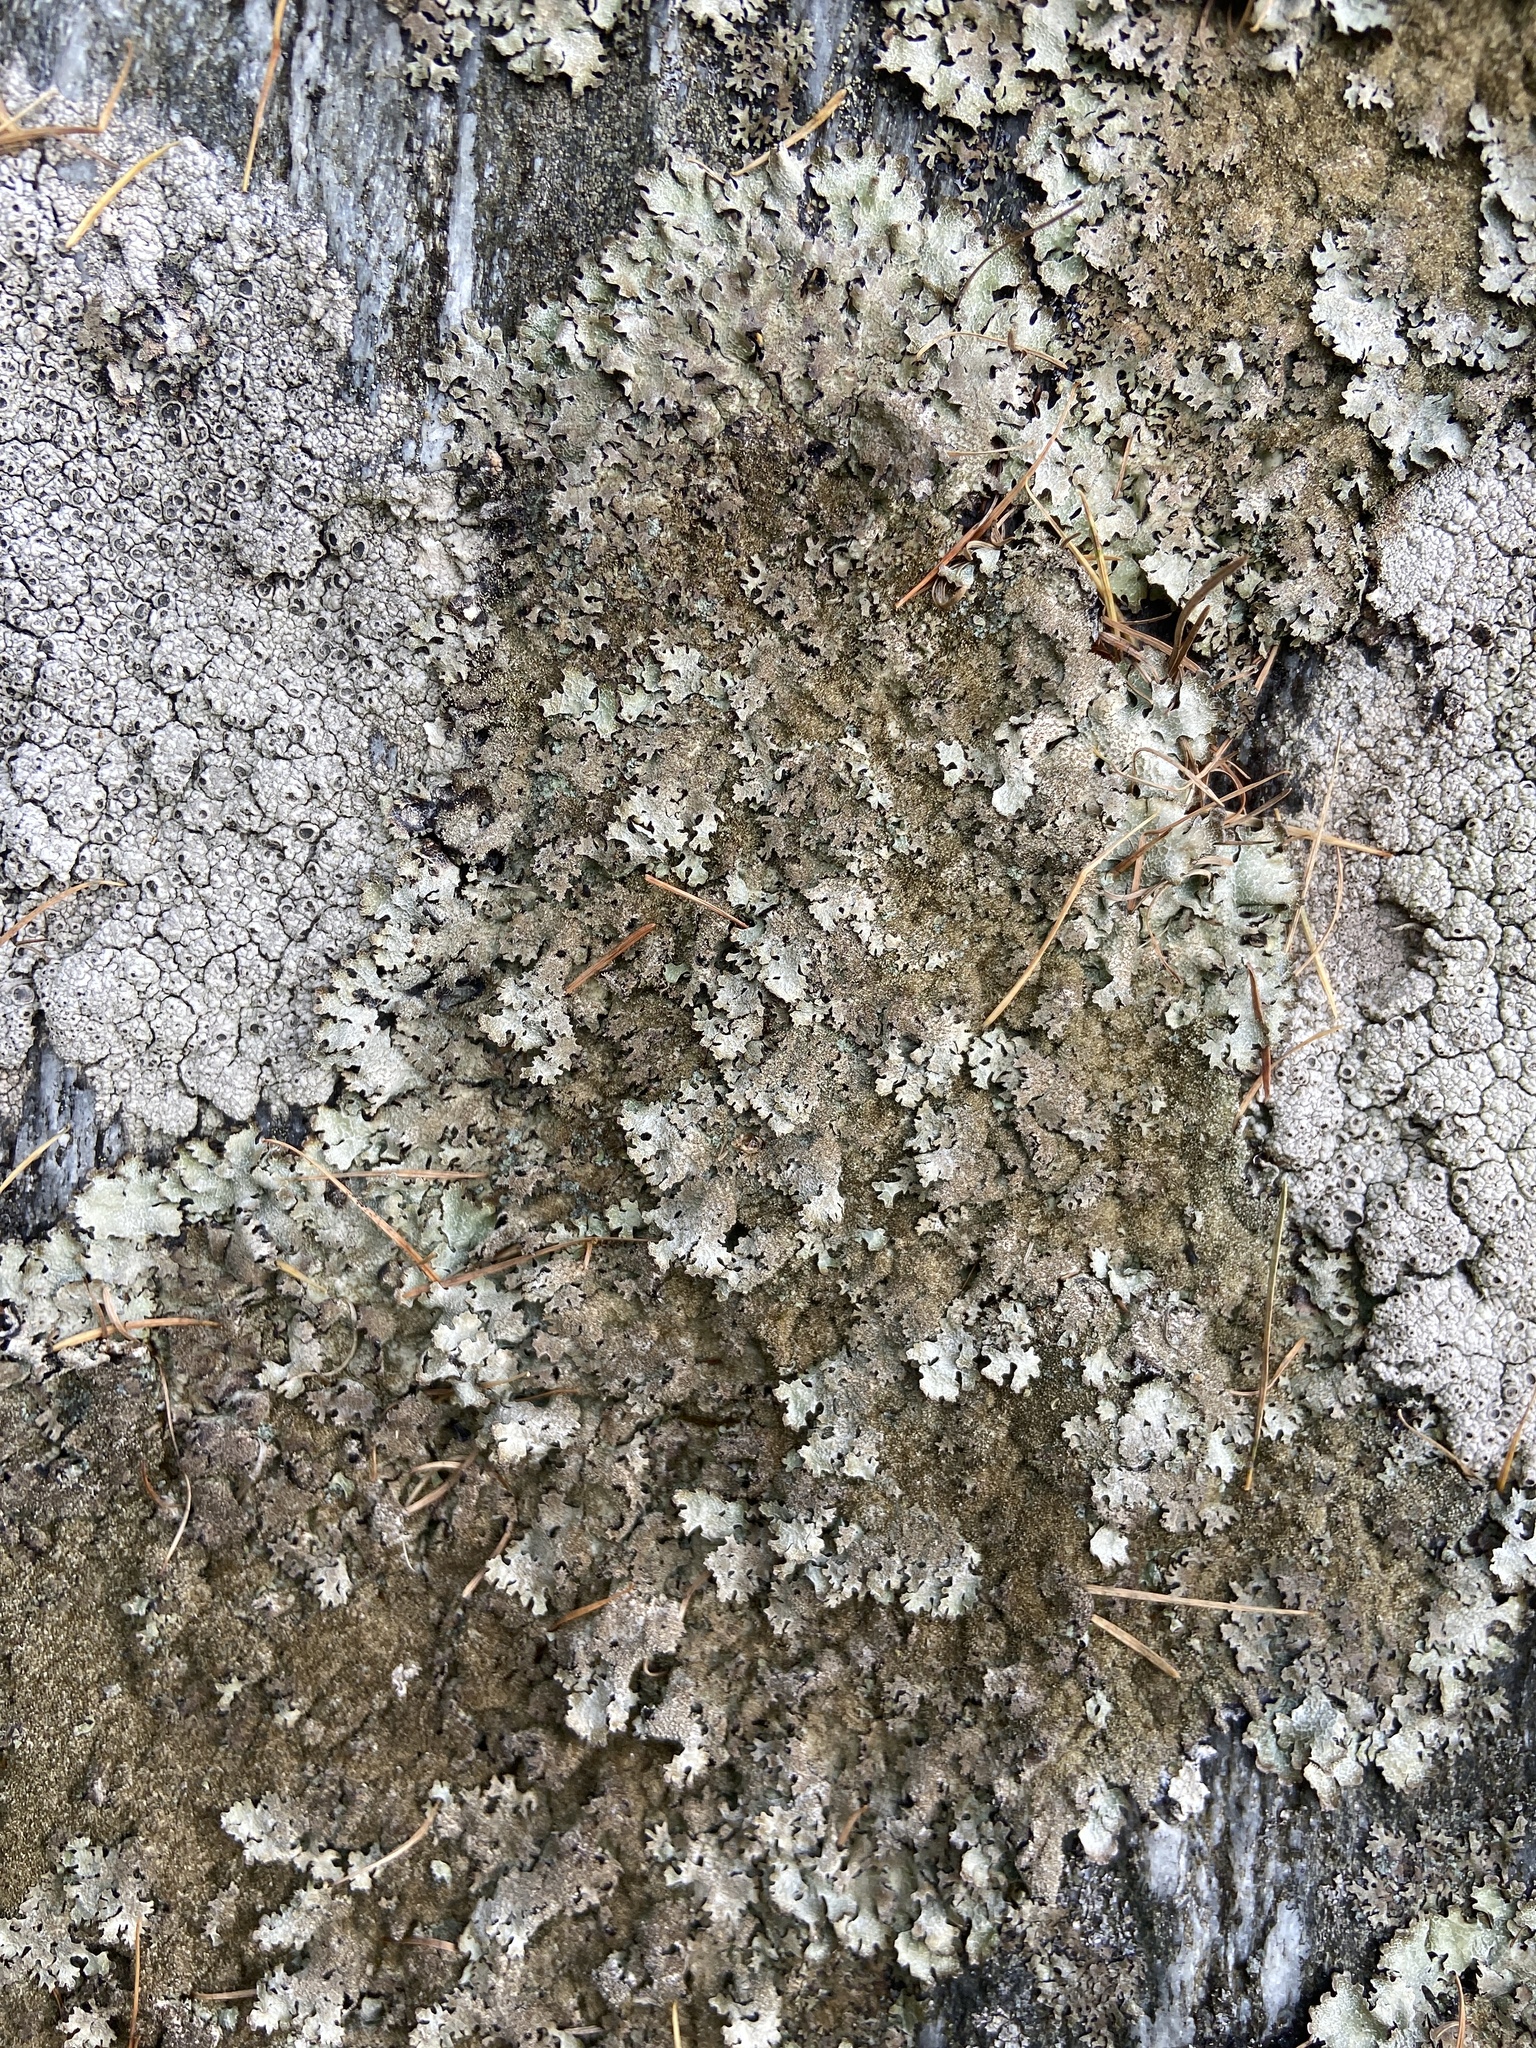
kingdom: Fungi
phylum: Ascomycota
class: Lecanoromycetes
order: Lecanorales
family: Parmeliaceae
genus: Parmelia
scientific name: Parmelia saxatilis
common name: Salted shield lichen
